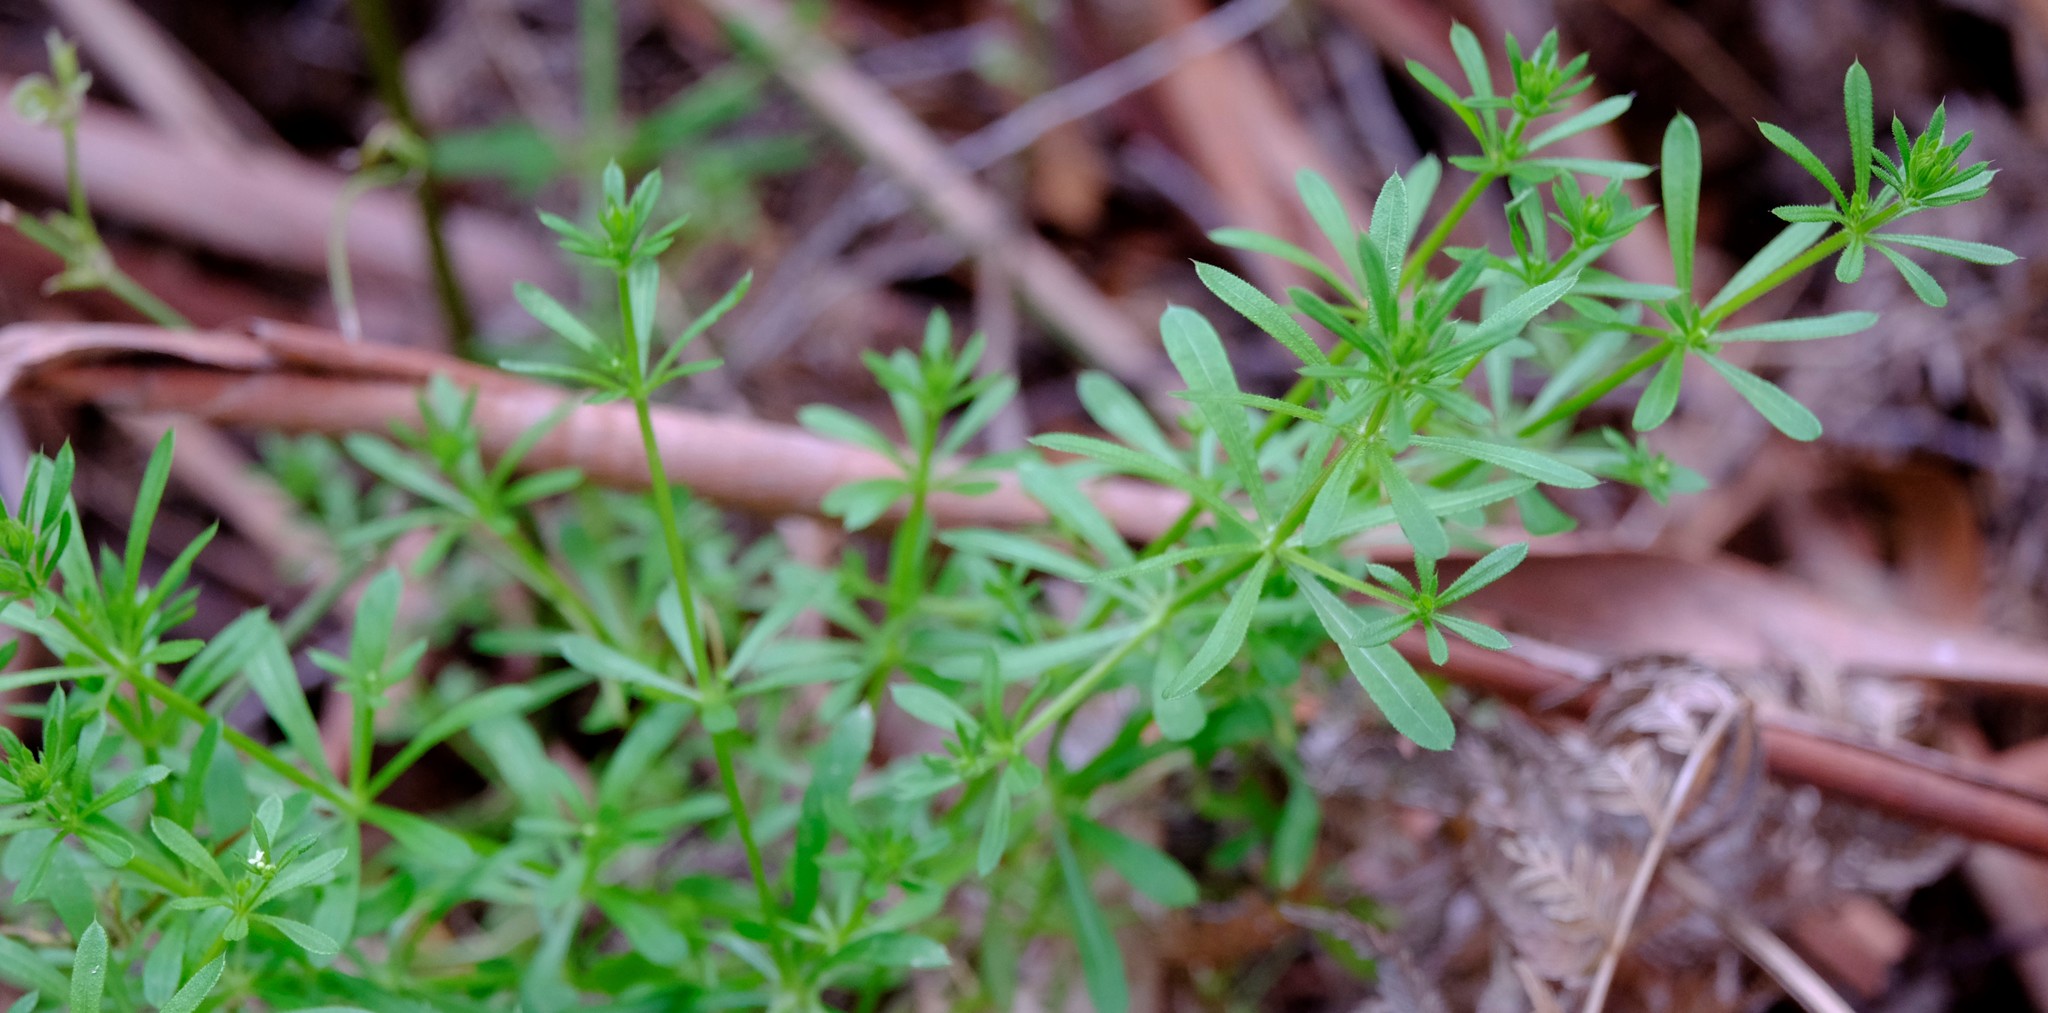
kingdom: Plantae
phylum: Tracheophyta
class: Magnoliopsida
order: Gentianales
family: Rubiaceae
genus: Galium
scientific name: Galium aparine
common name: Cleavers
